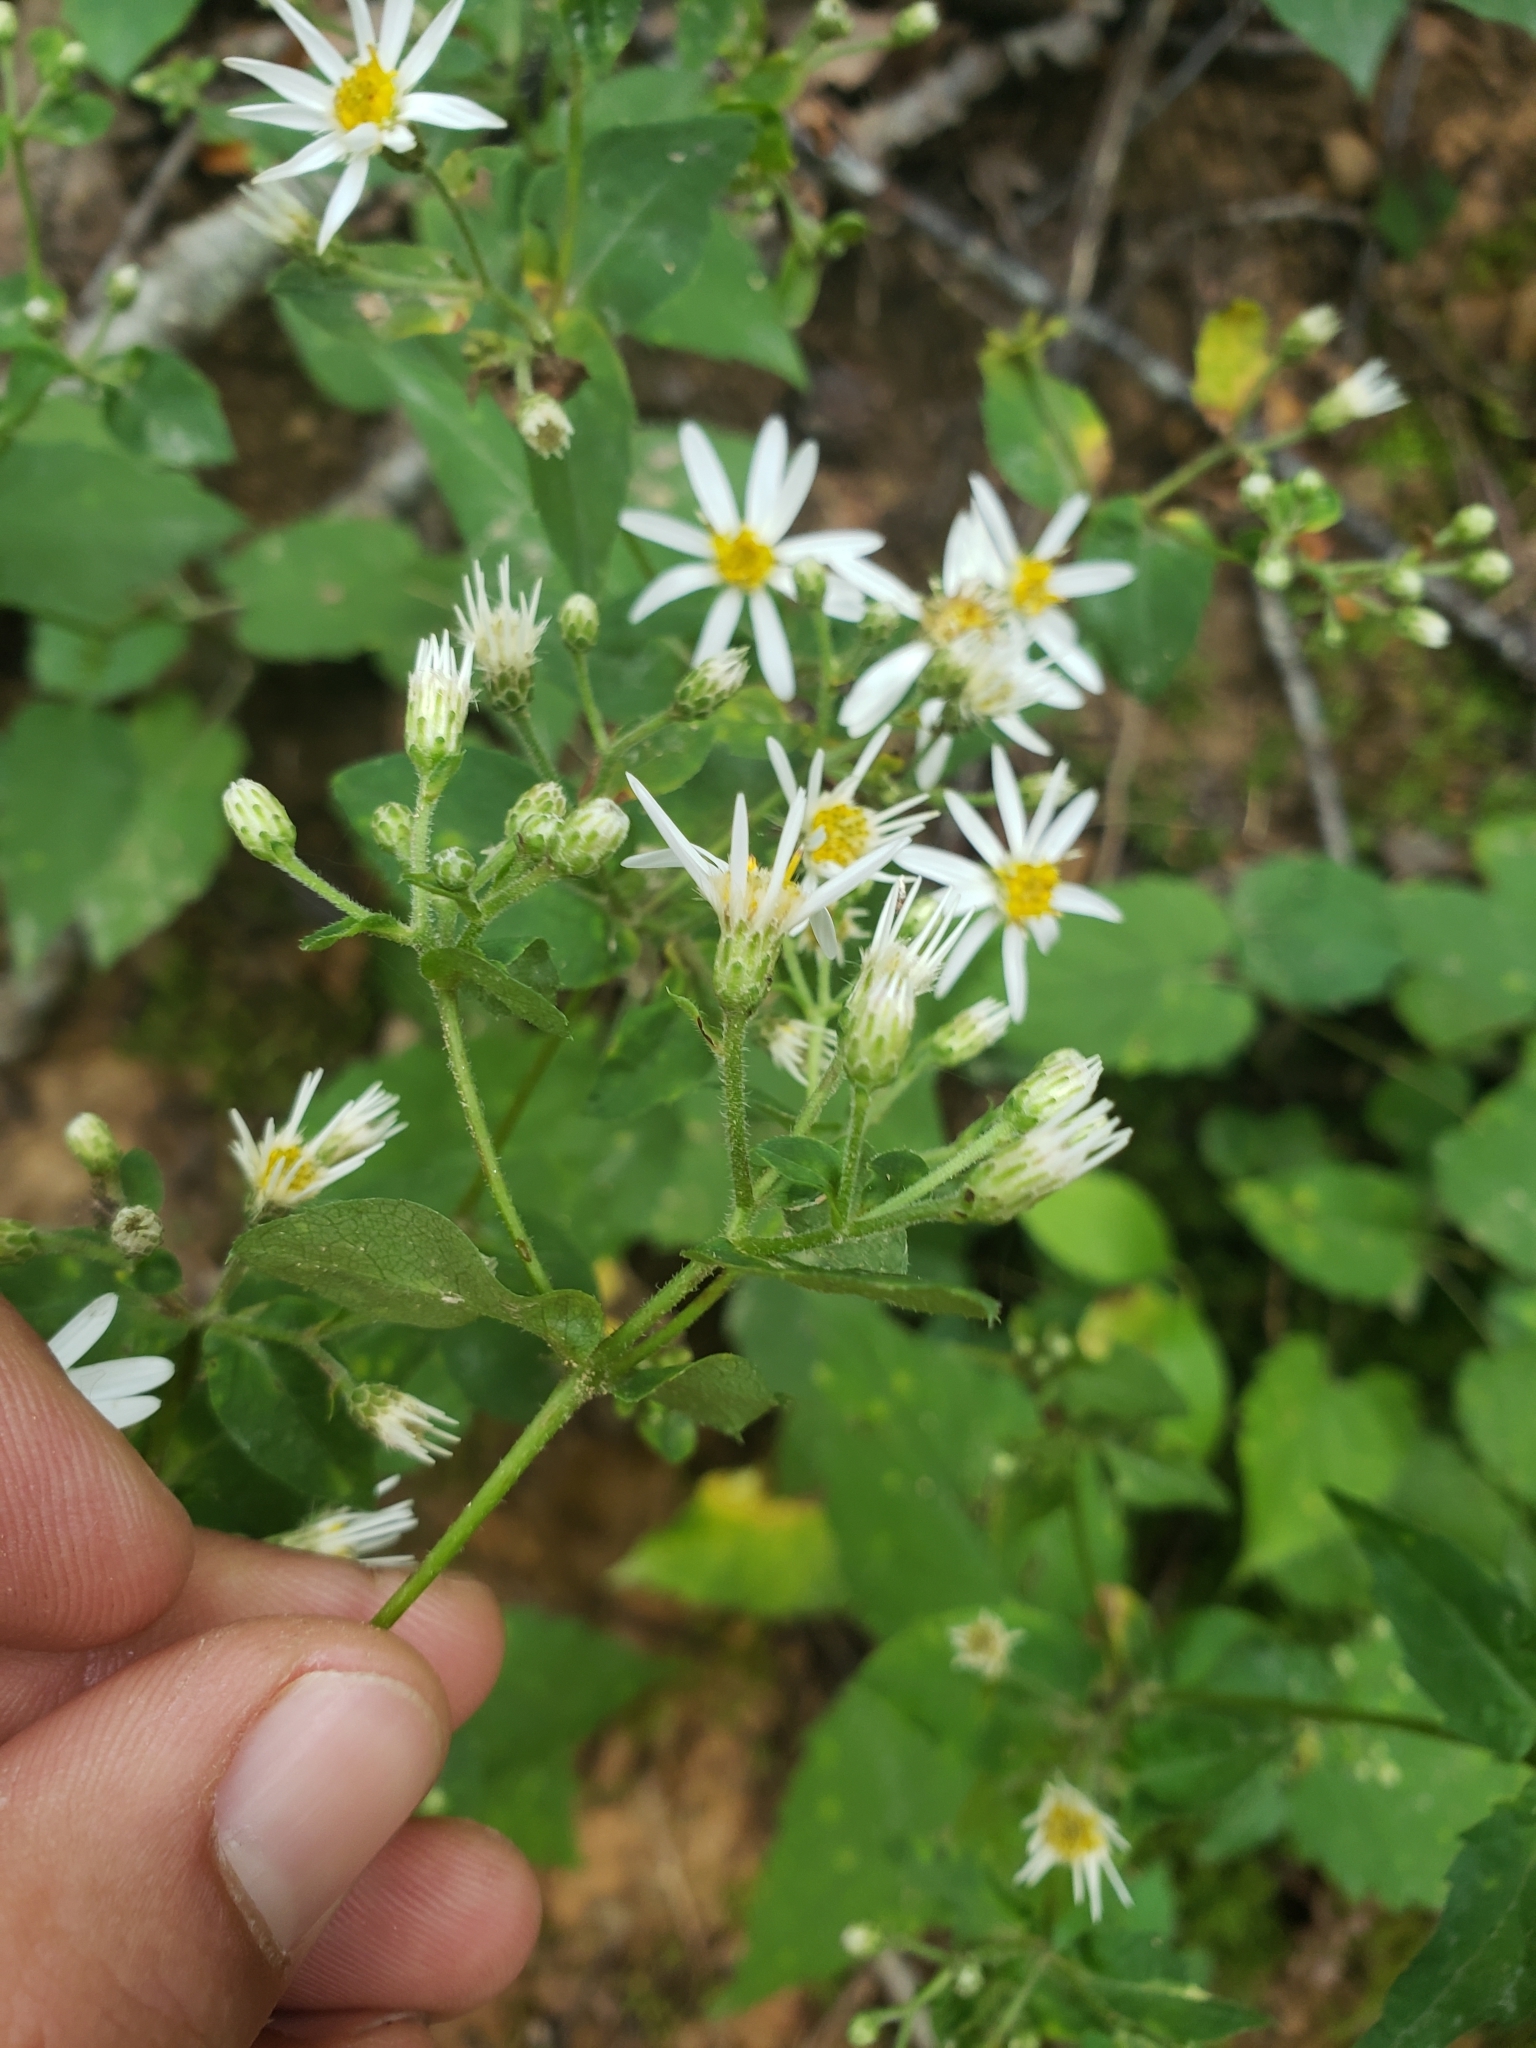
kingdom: Plantae
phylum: Tracheophyta
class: Magnoliopsida
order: Asterales
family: Asteraceae
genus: Eurybia
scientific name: Eurybia divaricata
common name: White wood aster
